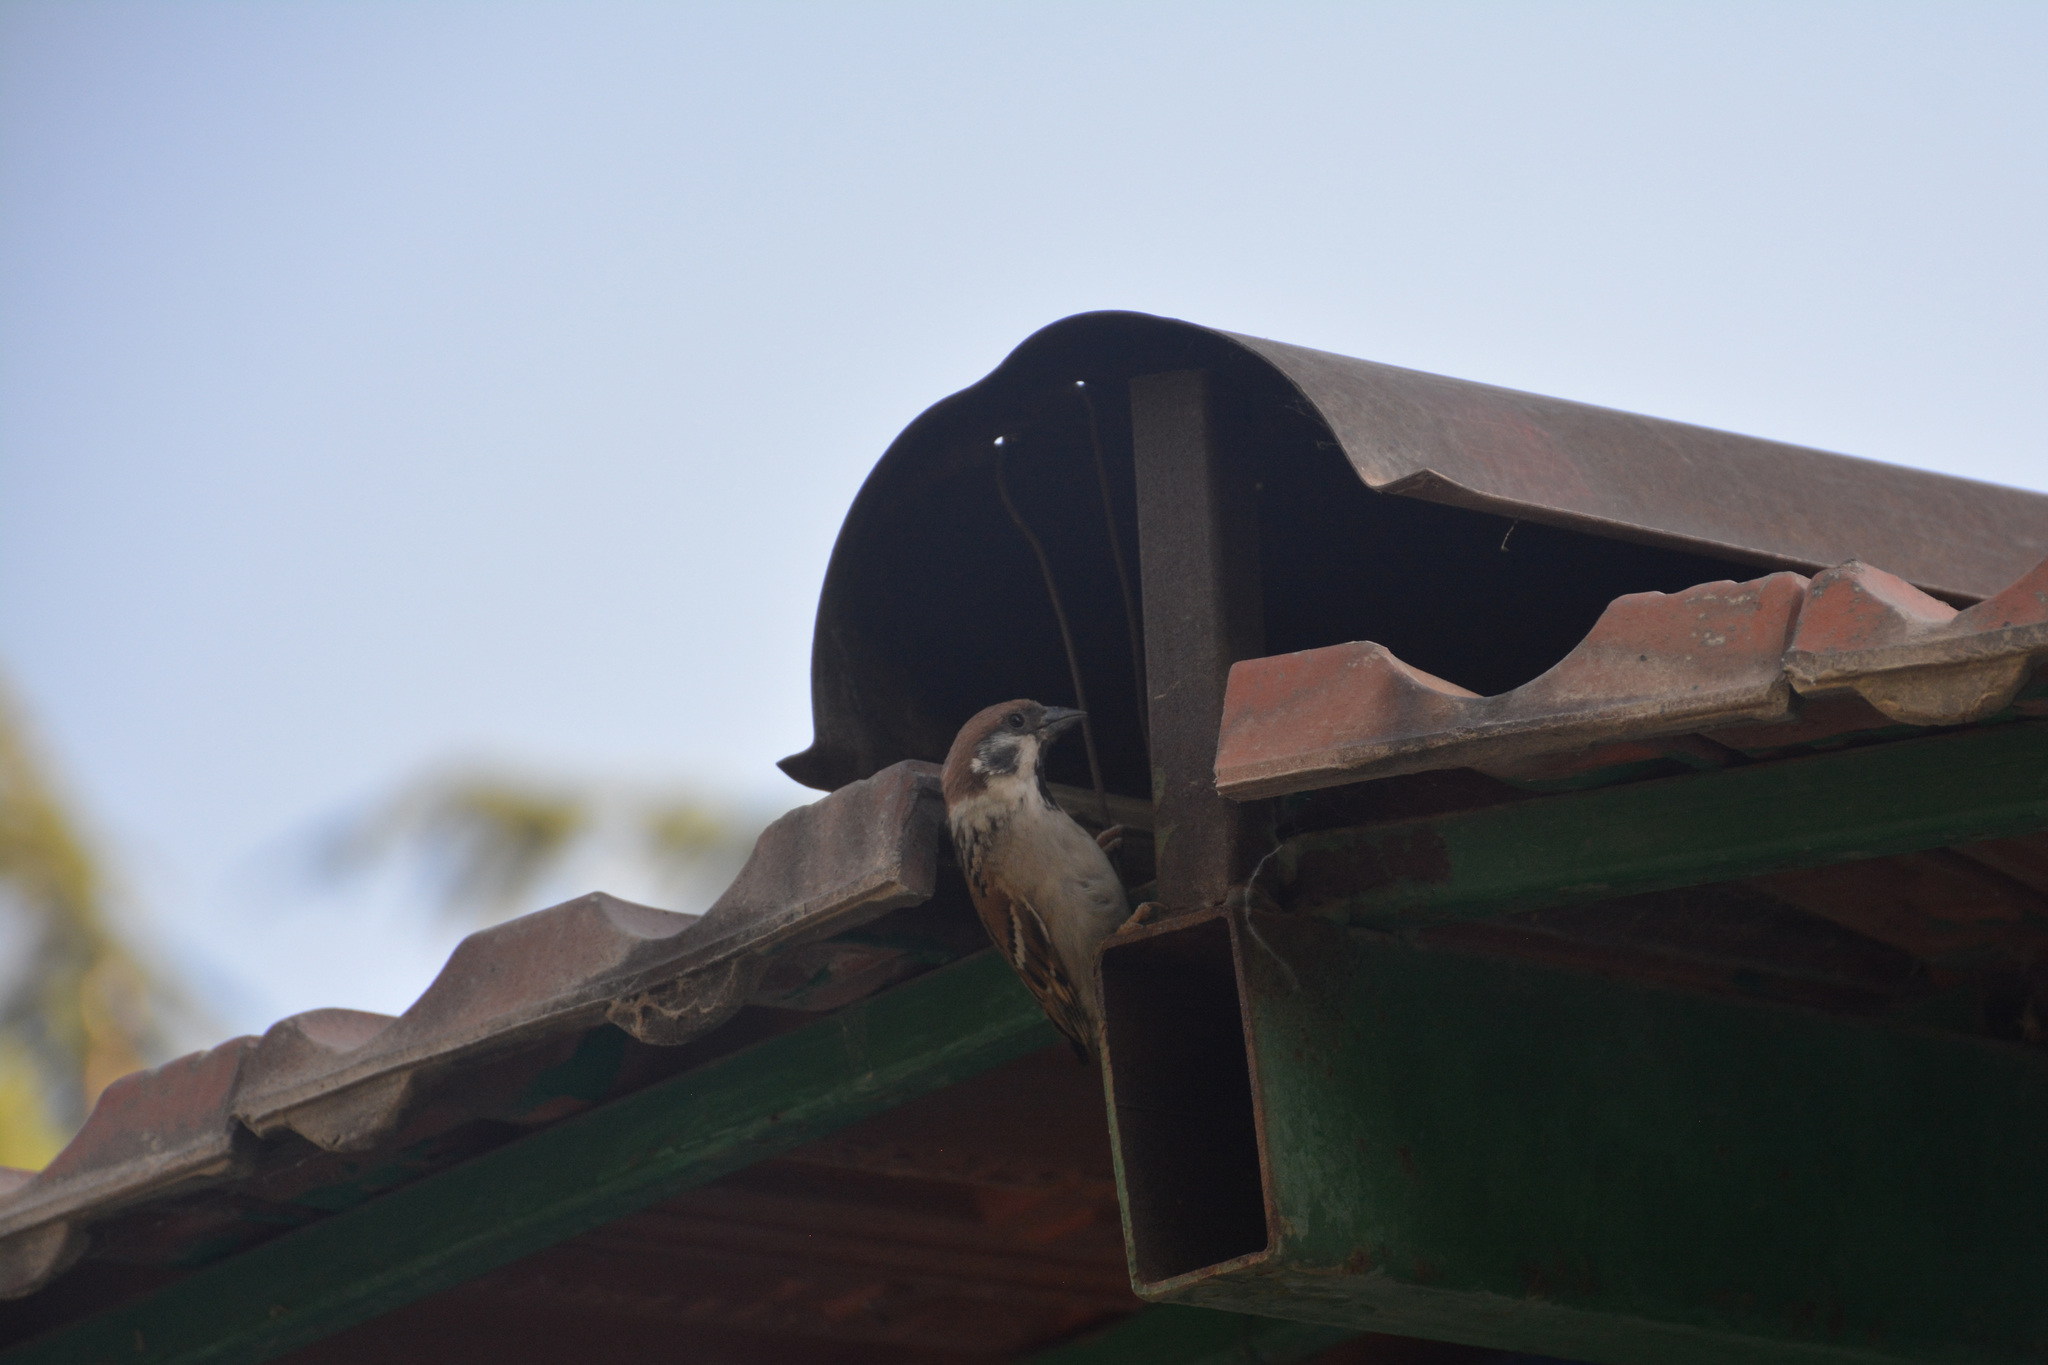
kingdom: Animalia
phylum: Chordata
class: Aves
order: Passeriformes
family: Passeridae
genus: Passer
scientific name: Passer montanus
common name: Eurasian tree sparrow
